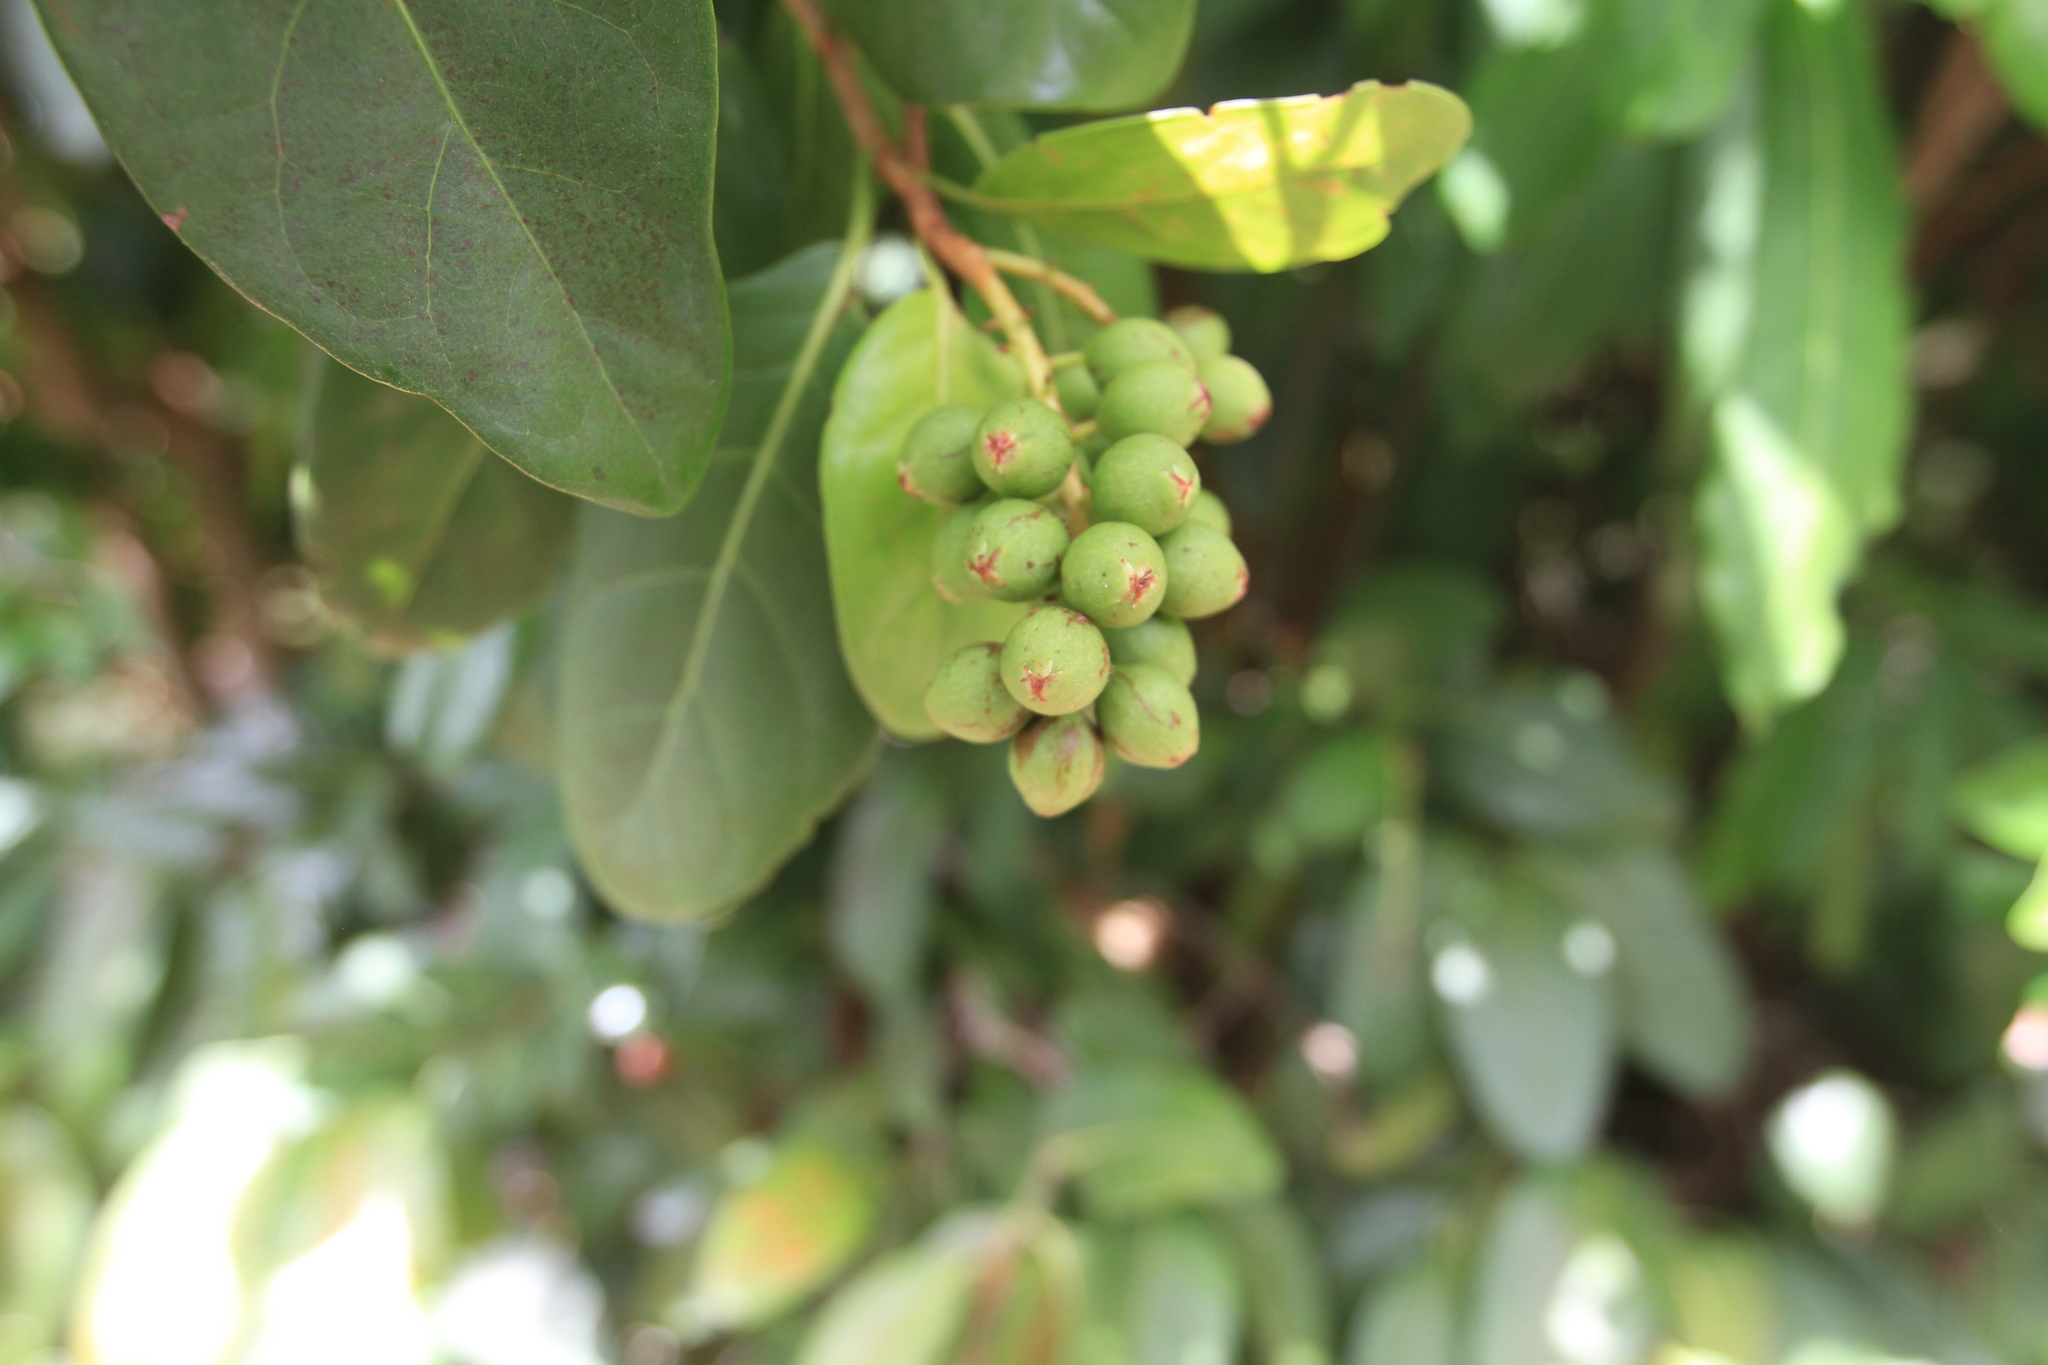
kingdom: Plantae
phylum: Tracheophyta
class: Magnoliopsida
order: Caryophyllales
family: Polygonaceae
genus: Coccoloba
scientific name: Coccoloba diversifolia
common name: Pigeon-plum
